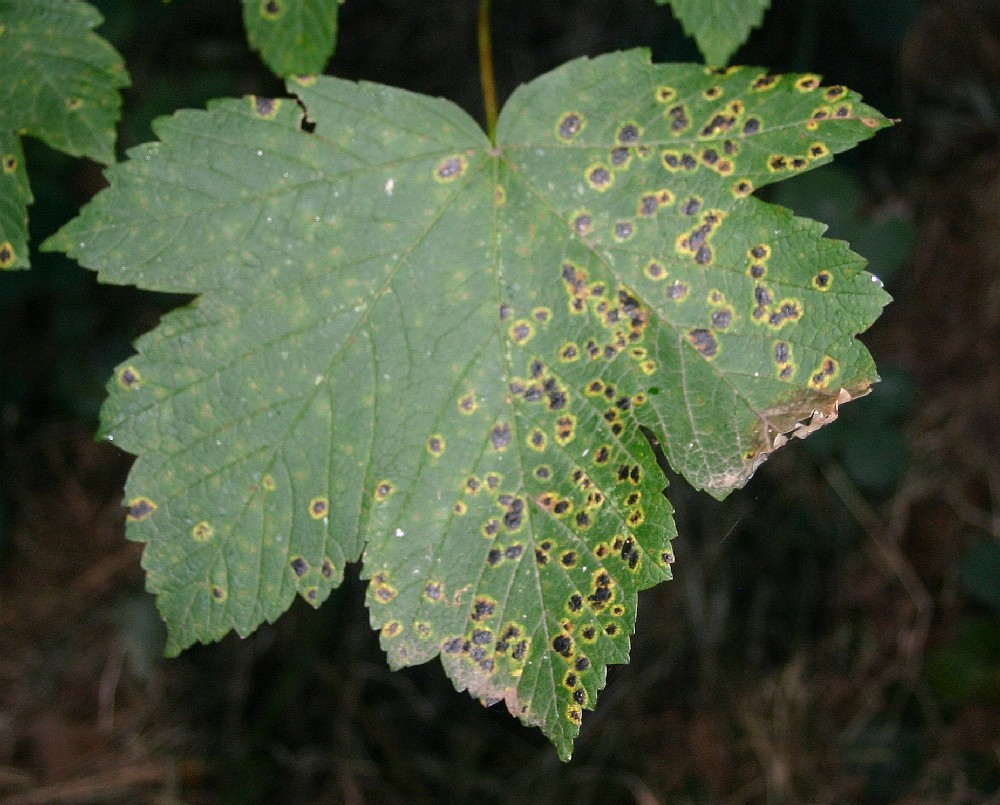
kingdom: Fungi
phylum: Ascomycota
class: Leotiomycetes
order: Rhytismatales
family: Rhytismataceae
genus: Rhytisma
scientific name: Rhytisma acerinum
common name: European tar spot
